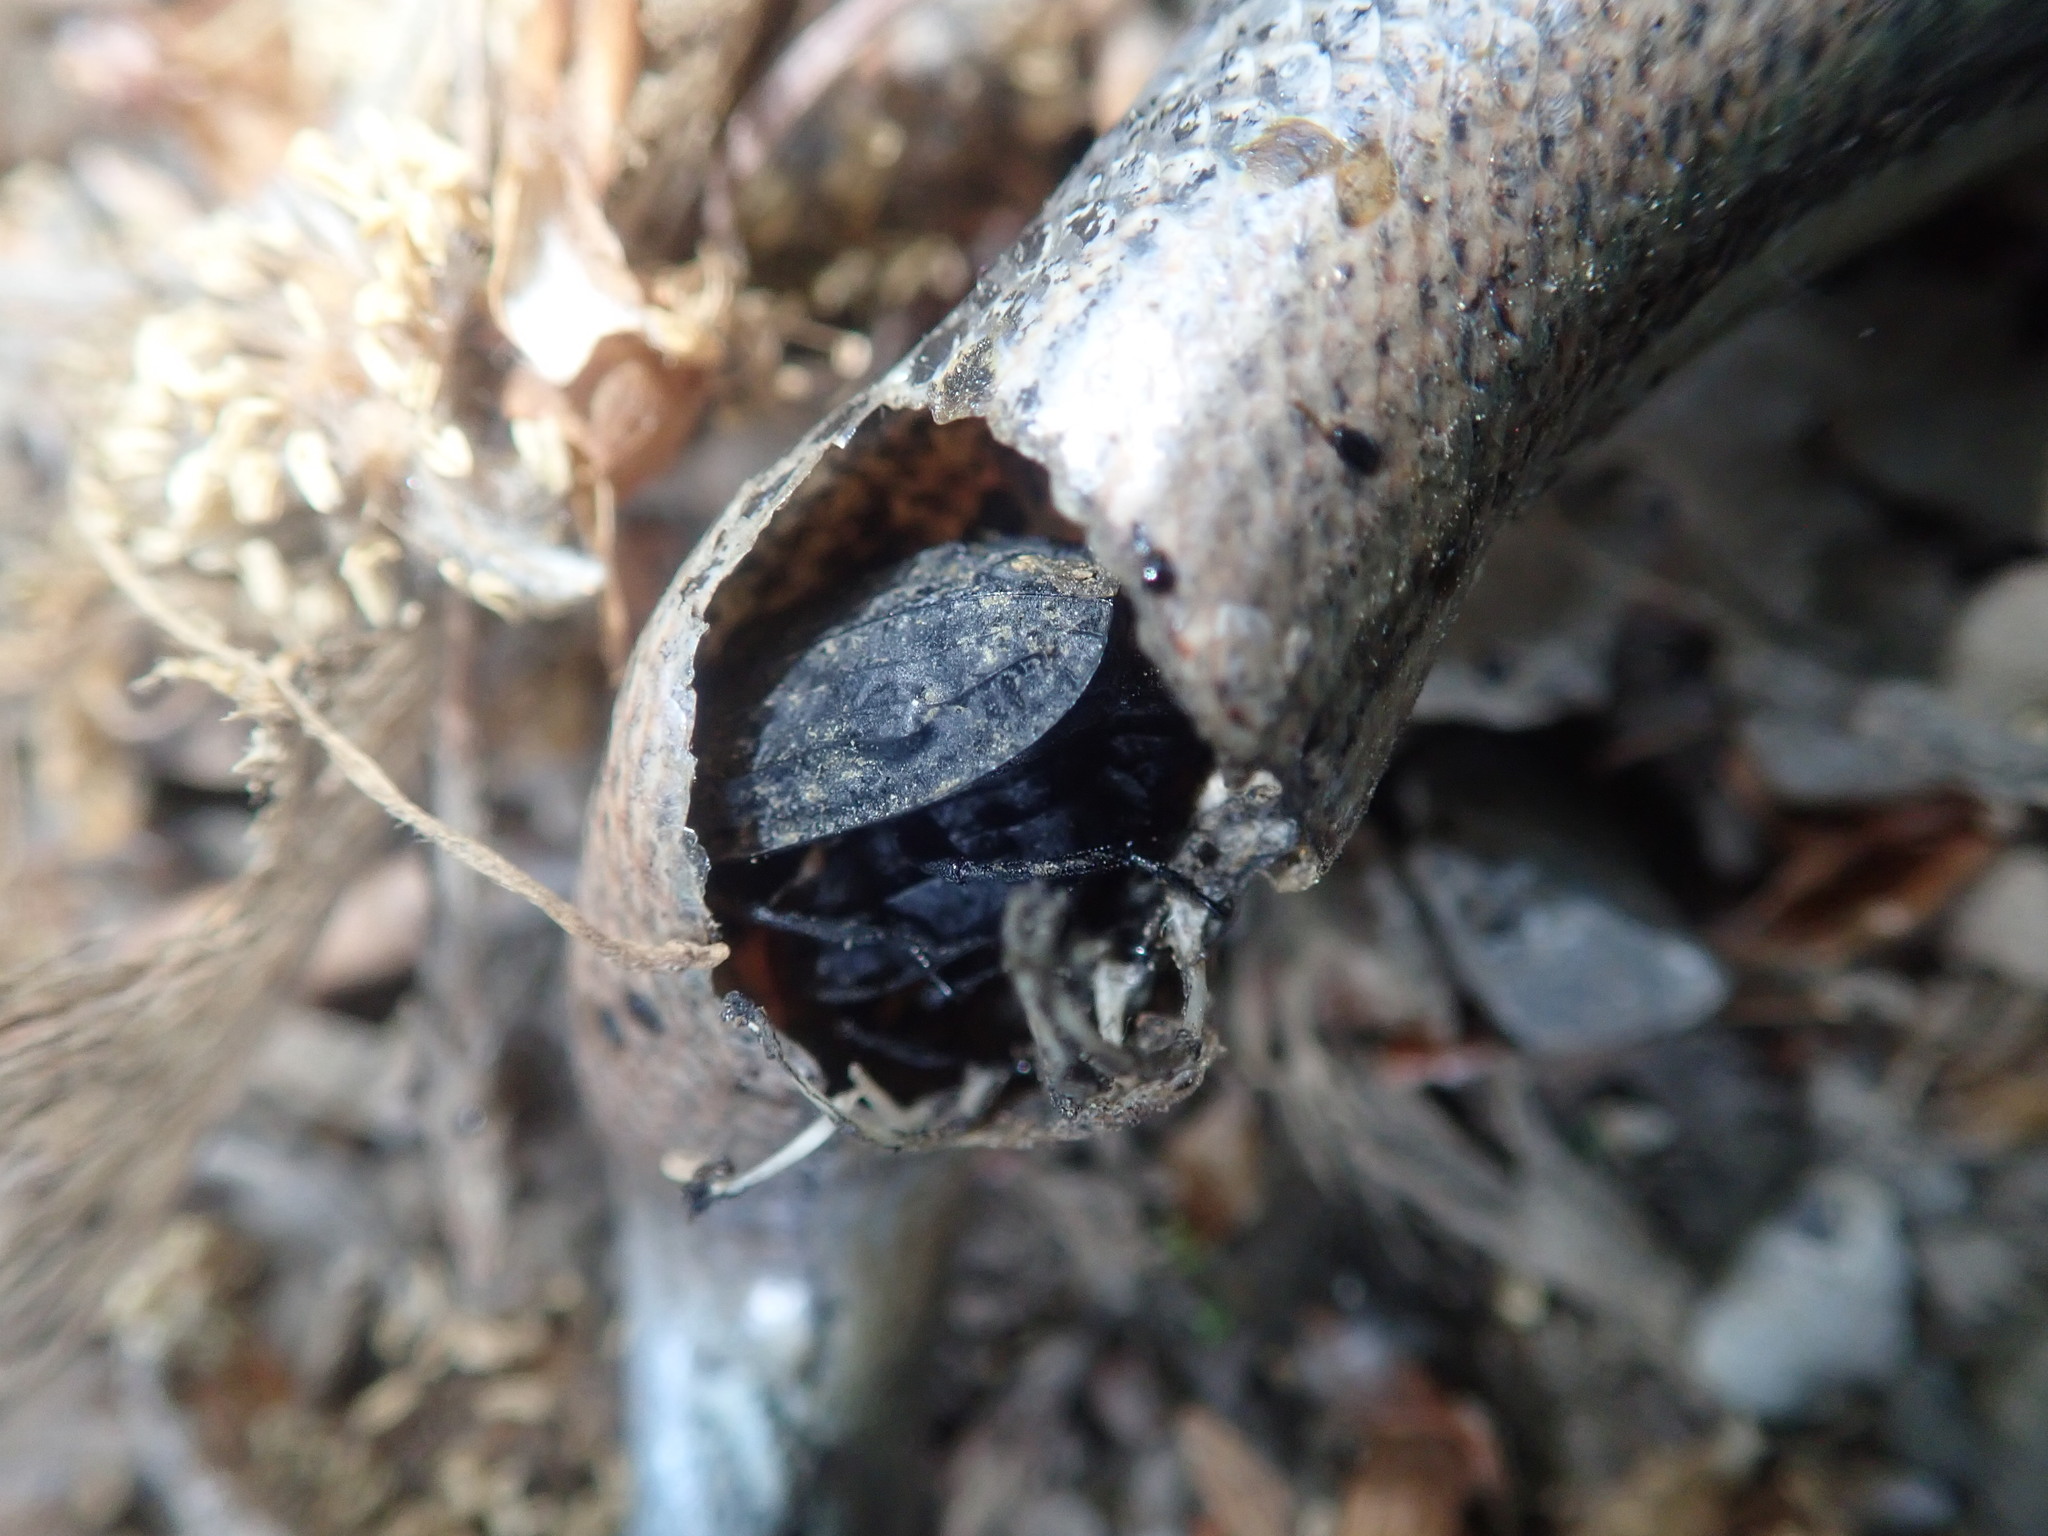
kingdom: Animalia
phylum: Arthropoda
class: Insecta
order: Coleoptera
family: Staphylinidae
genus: Oiceoptoma
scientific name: Oiceoptoma thoracicum
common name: Red-breasted carrion beetle
